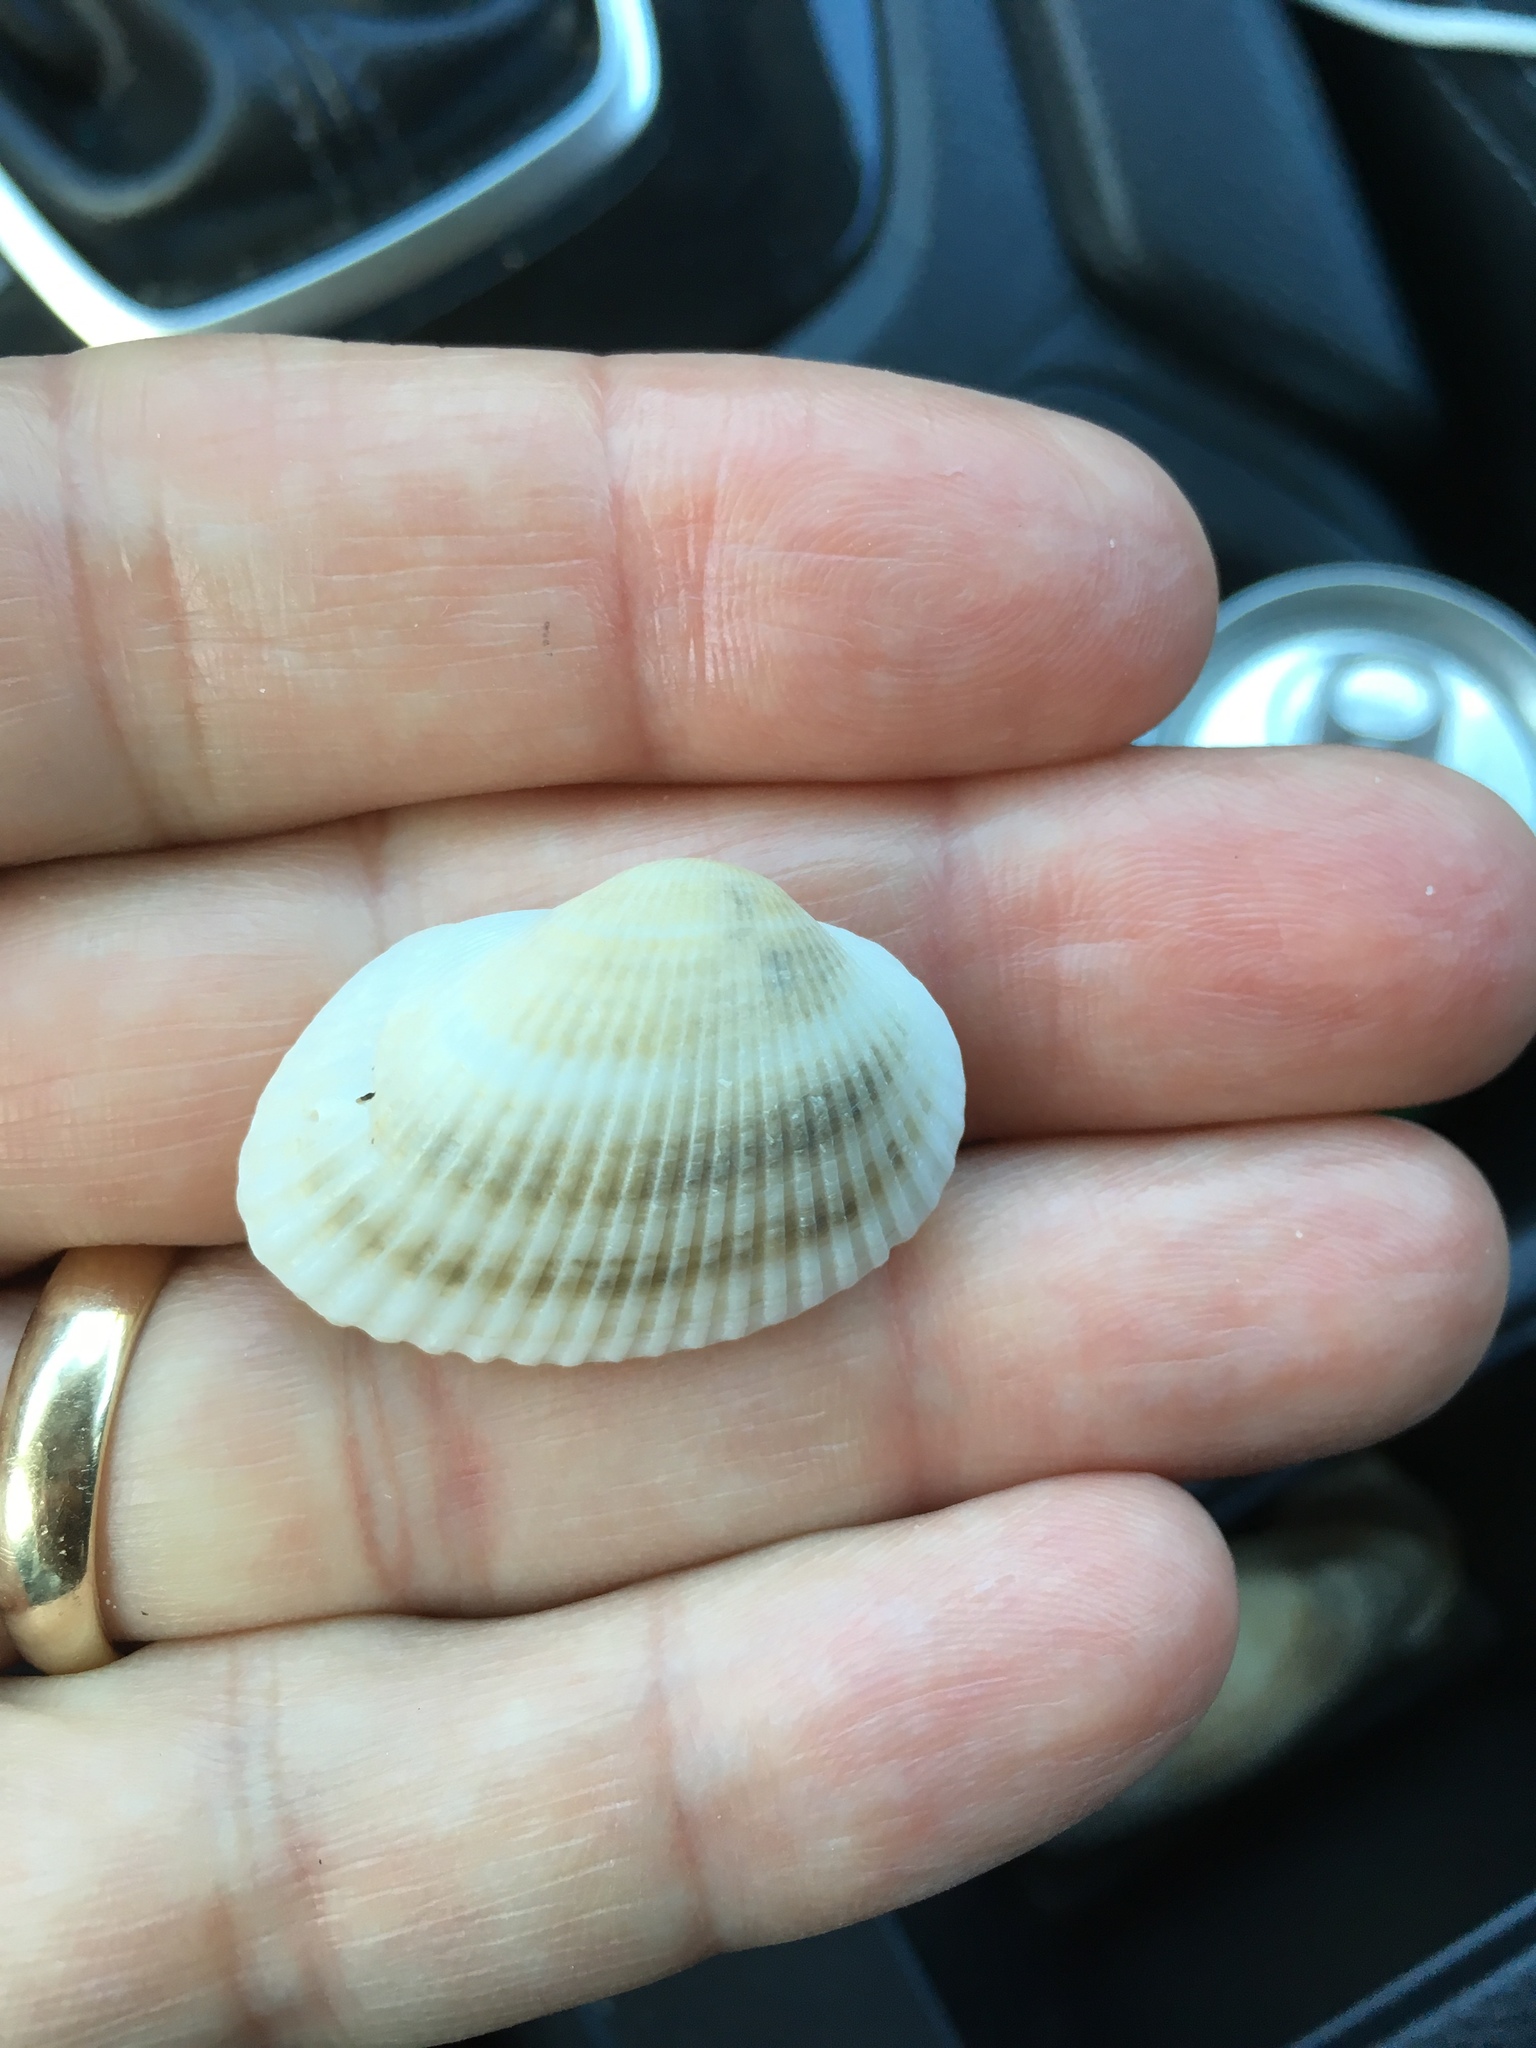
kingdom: Animalia
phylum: Mollusca
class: Bivalvia
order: Arcida
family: Arcidae
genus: Anadara
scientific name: Anadara transversa
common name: Transverse ark
